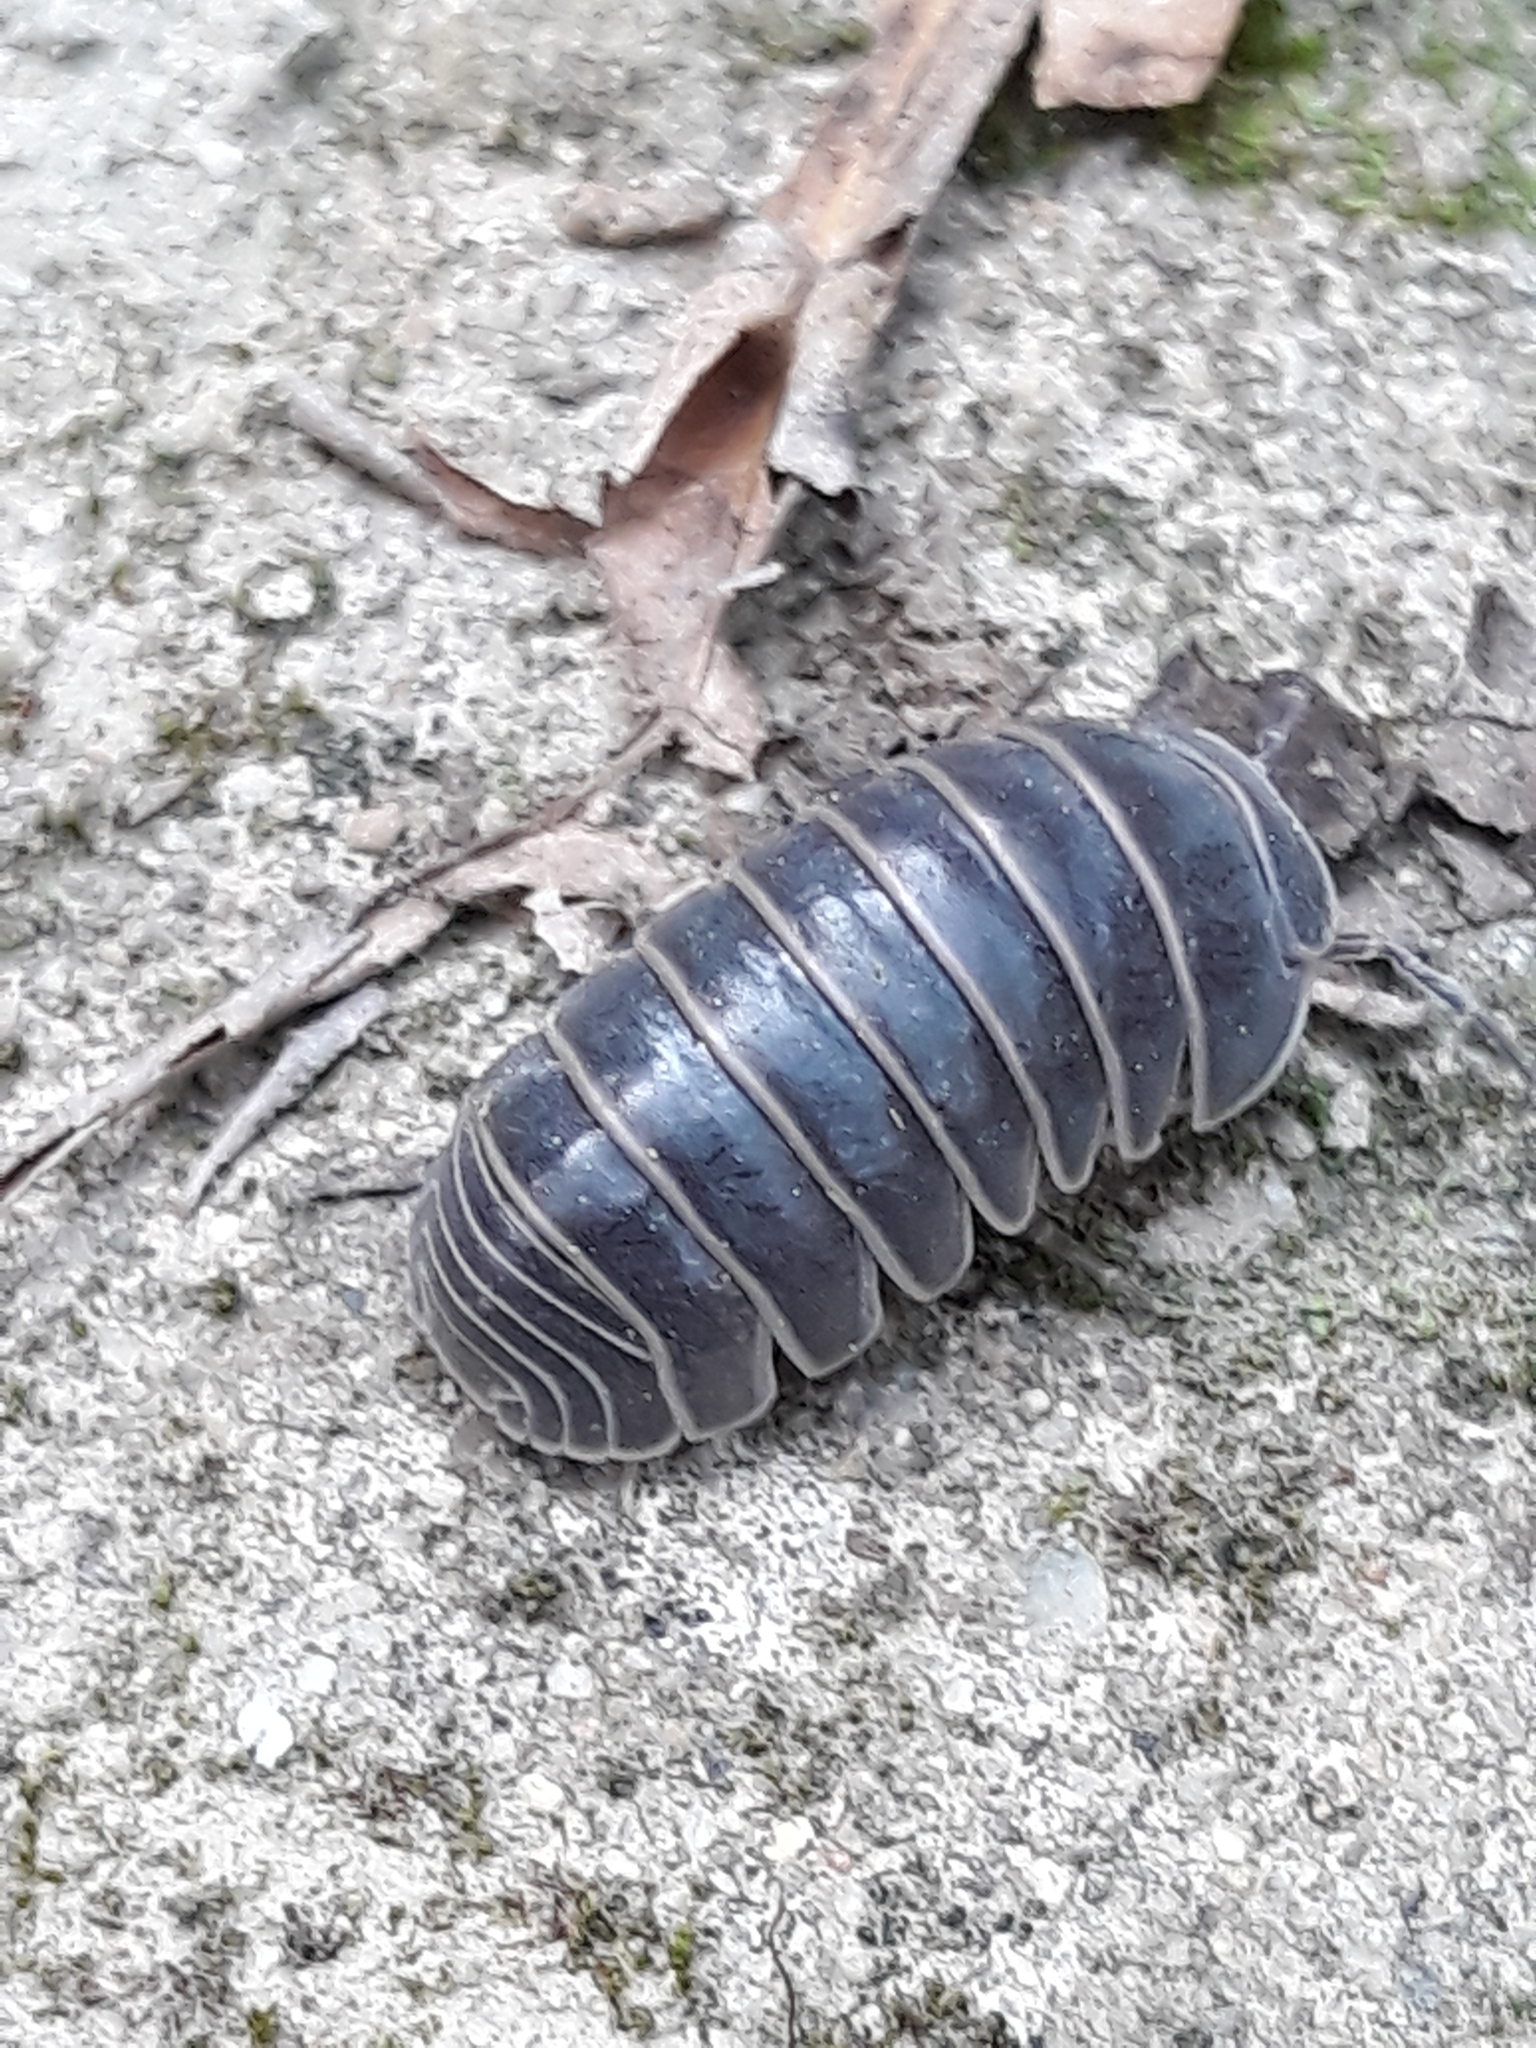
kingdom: Animalia
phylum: Arthropoda
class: Malacostraca
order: Isopoda
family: Armadillidae
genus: Armadillo
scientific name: Armadillo officinalis
